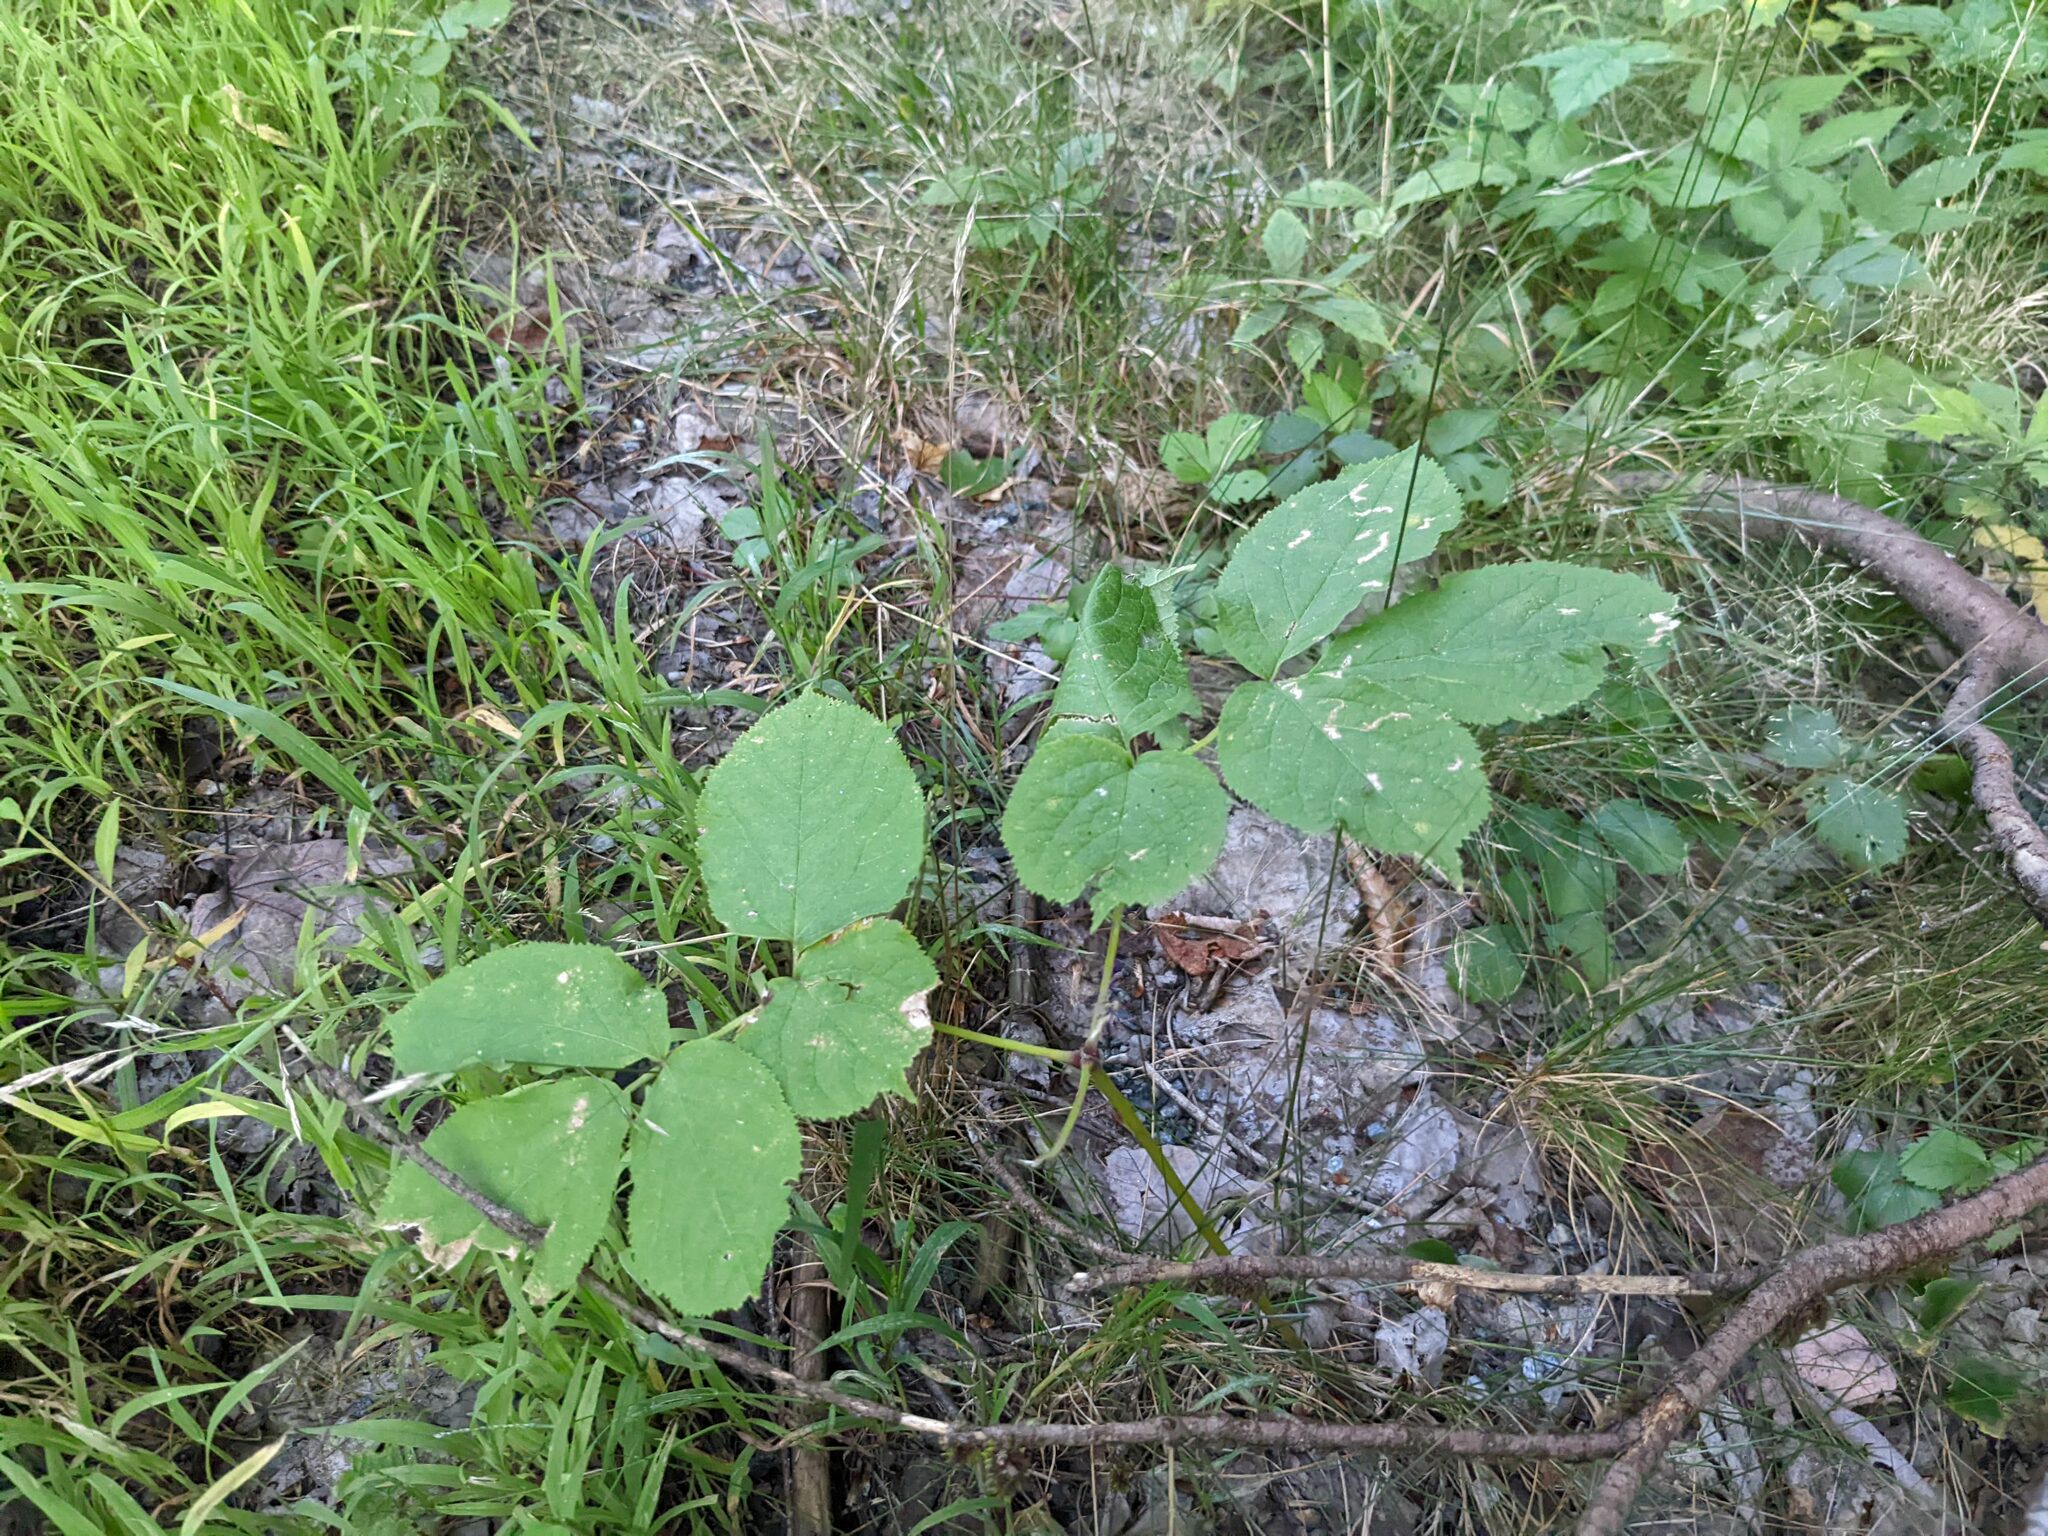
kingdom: Plantae
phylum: Tracheophyta
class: Magnoliopsida
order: Apiales
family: Araliaceae
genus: Aralia
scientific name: Aralia nudicaulis
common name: Wild sarsaparilla
